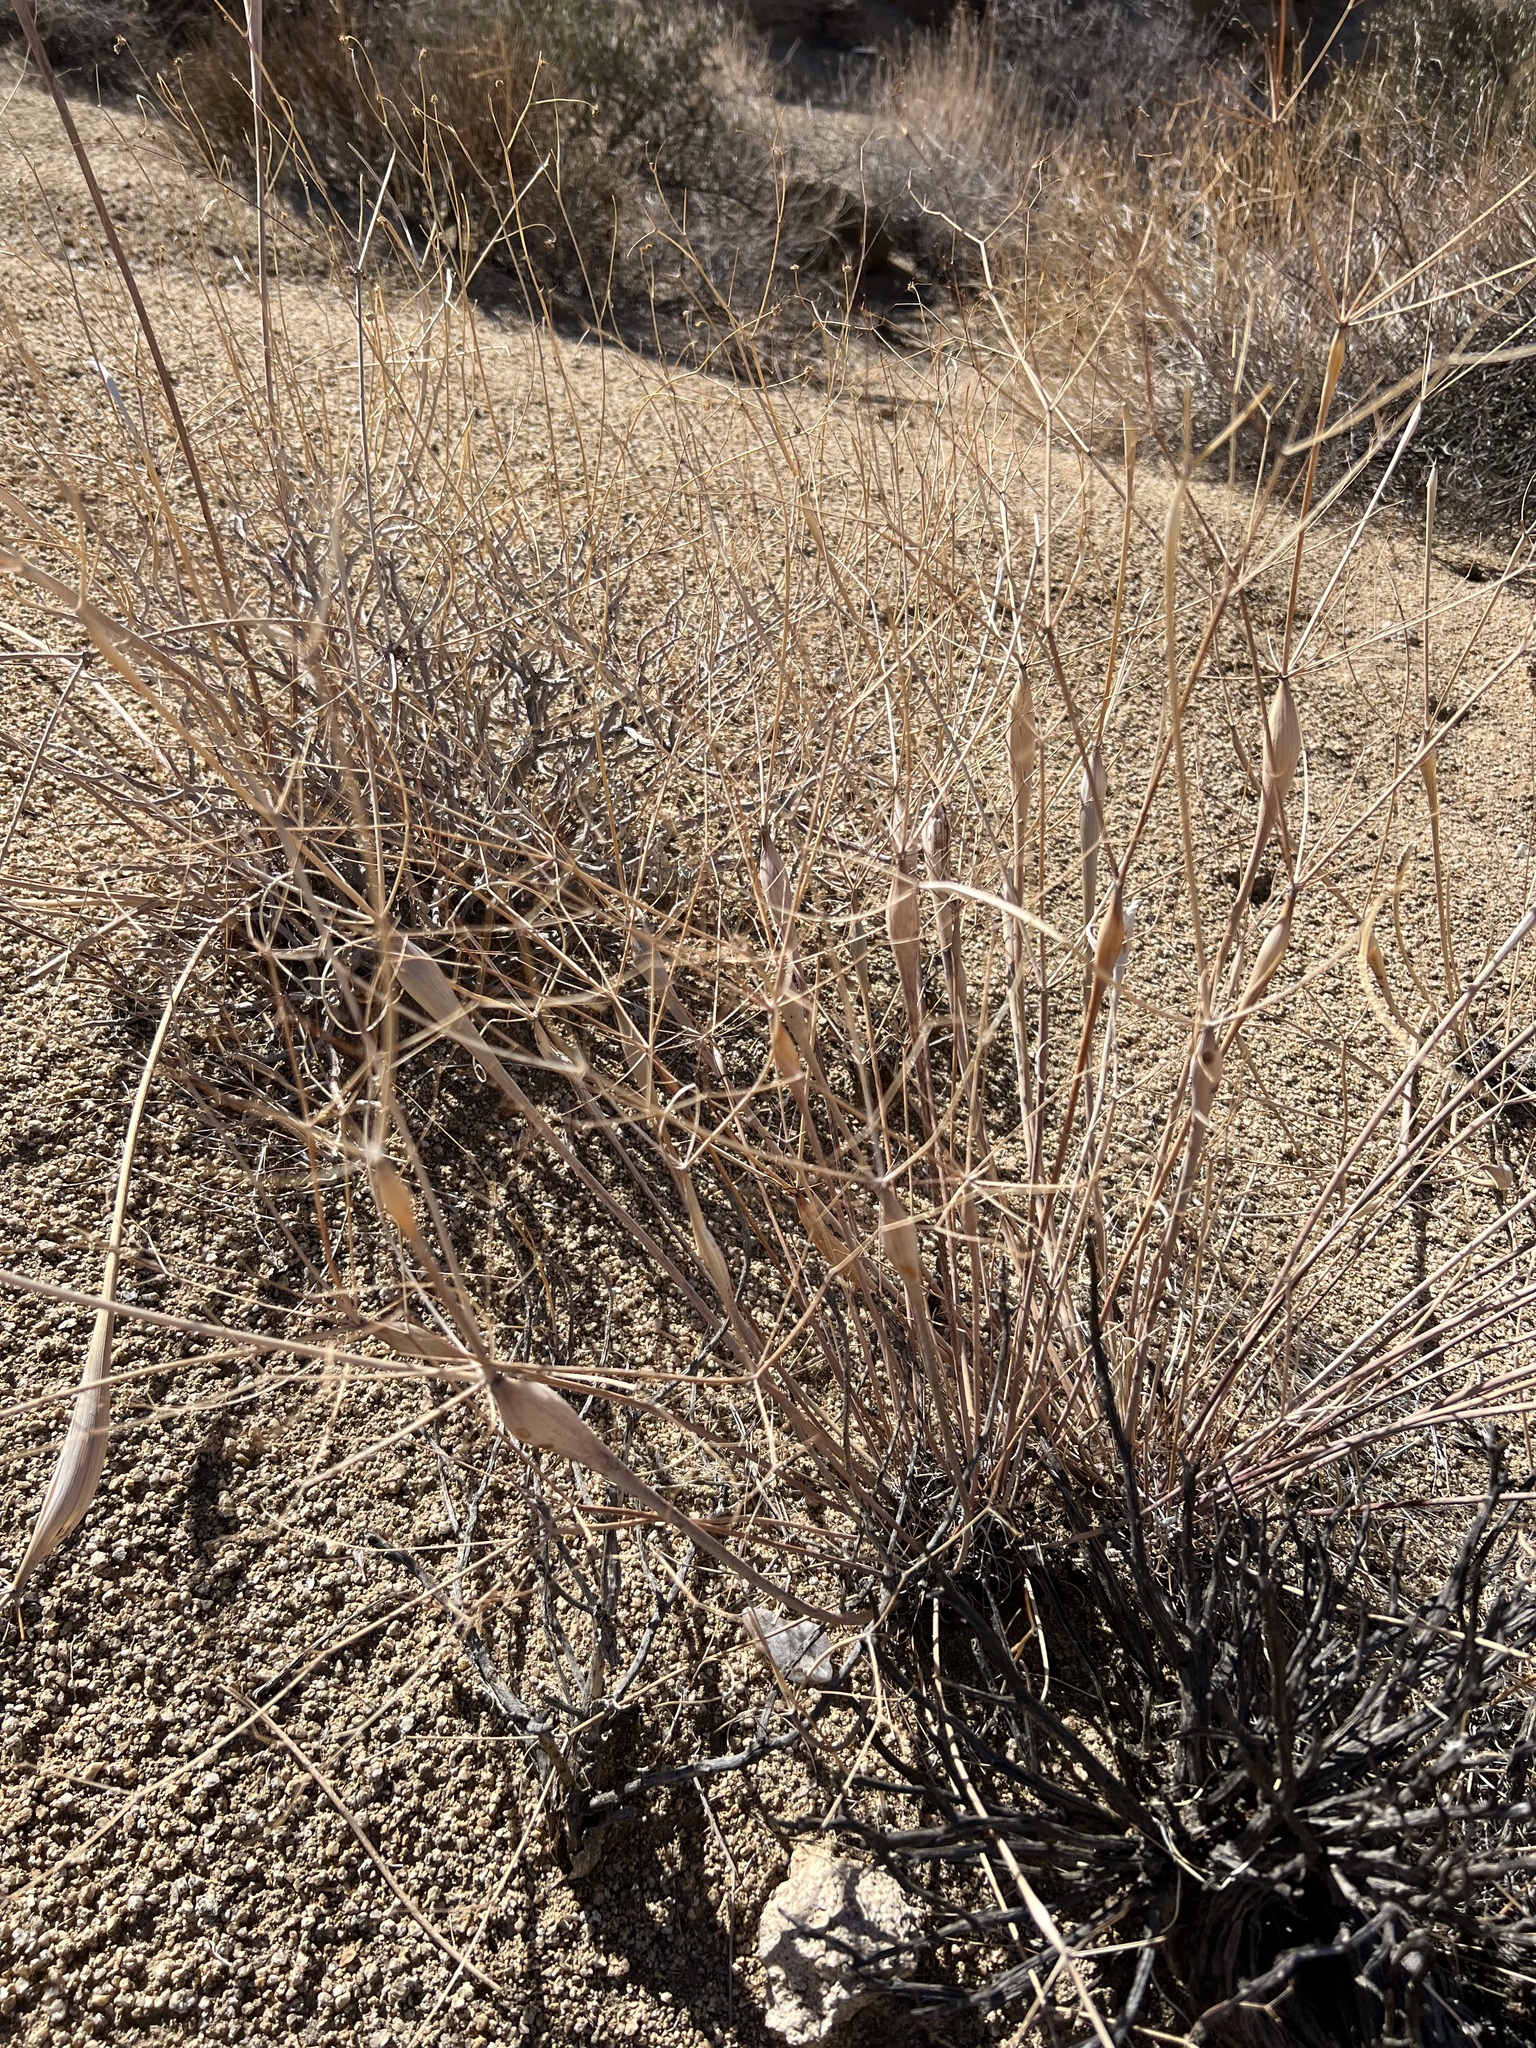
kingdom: Plantae
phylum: Tracheophyta
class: Magnoliopsida
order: Caryophyllales
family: Polygonaceae
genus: Eriogonum
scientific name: Eriogonum inflatum
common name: Desert trumpet
